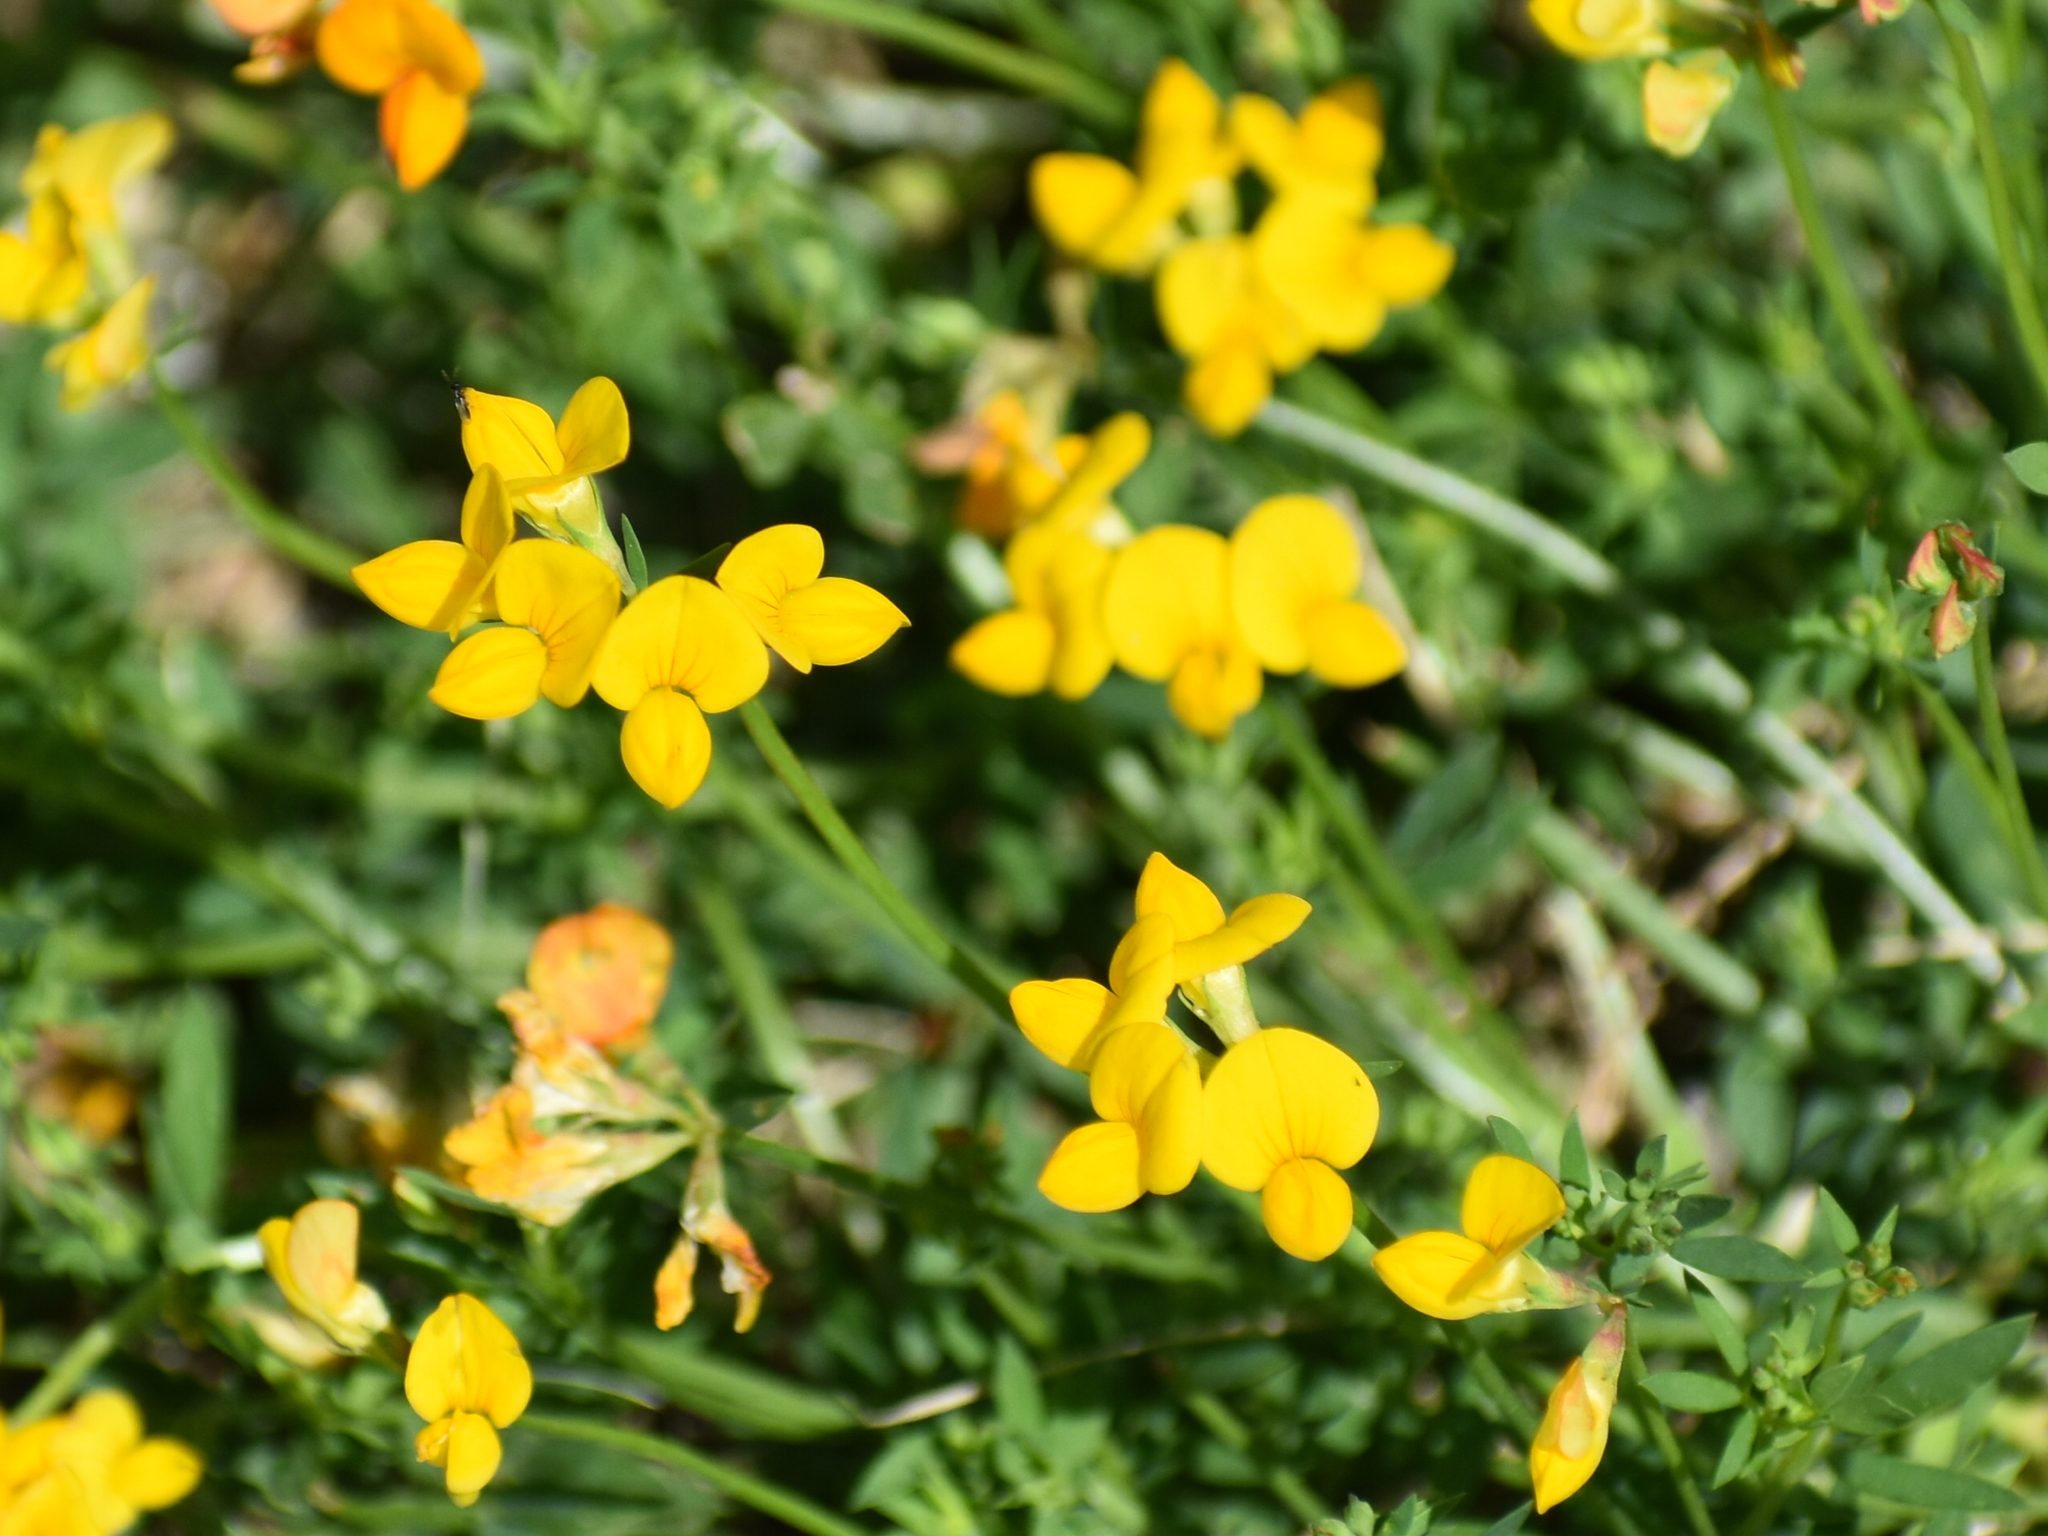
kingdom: Plantae
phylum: Tracheophyta
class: Magnoliopsida
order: Fabales
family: Fabaceae
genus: Lotus
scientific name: Lotus corniculatus
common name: Common bird's-foot-trefoil
